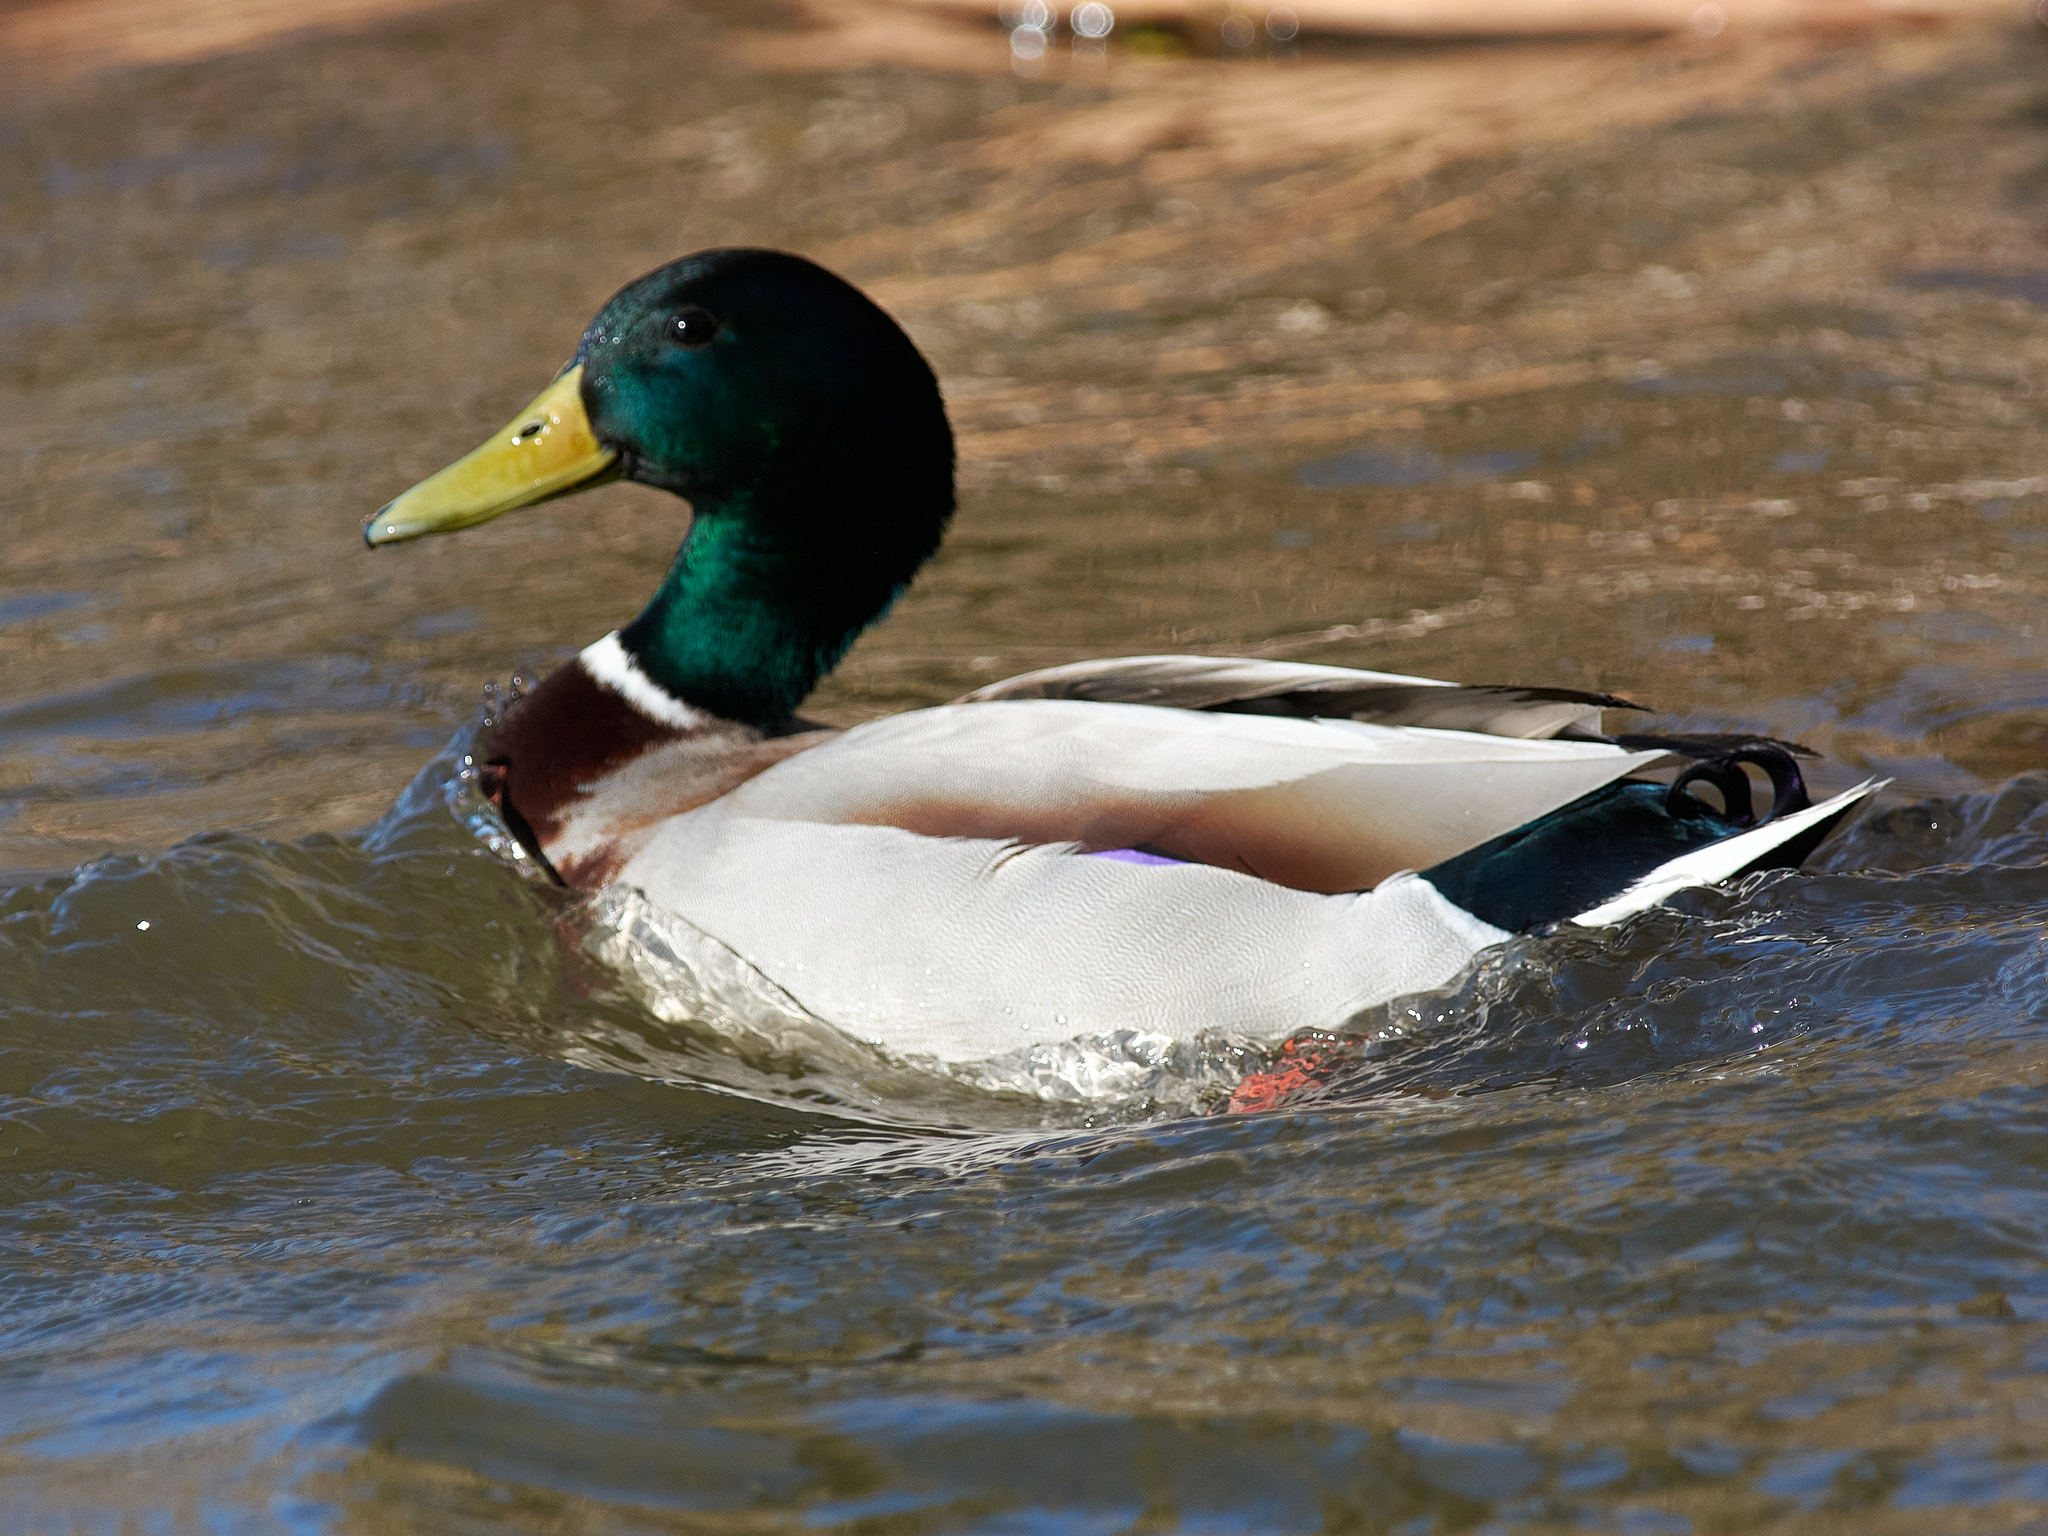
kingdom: Animalia
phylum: Chordata
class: Aves
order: Anseriformes
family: Anatidae
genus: Anas
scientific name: Anas platyrhynchos
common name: Mallard
